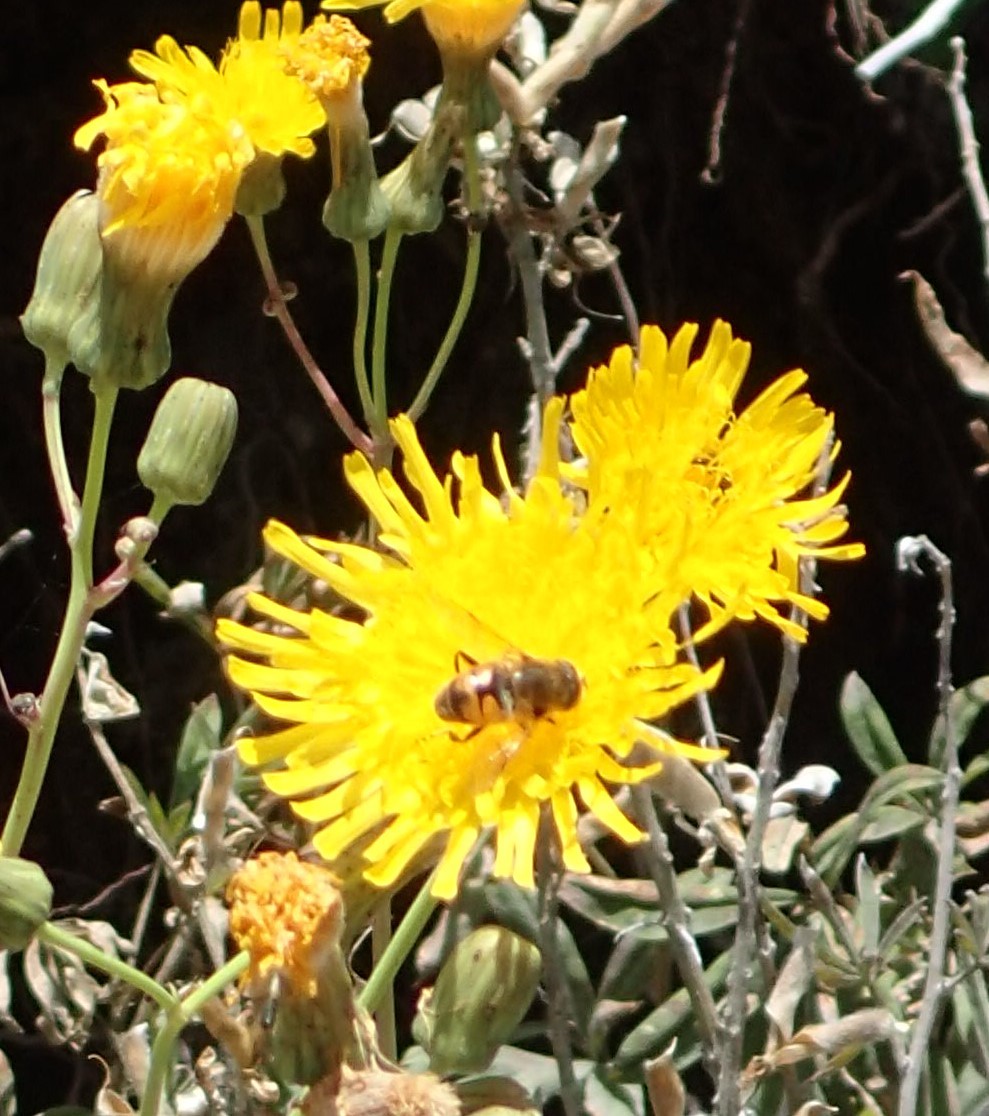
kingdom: Animalia
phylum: Arthropoda
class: Insecta
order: Diptera
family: Syrphidae
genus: Eristalis
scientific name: Eristalis tenax
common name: Drone fly
